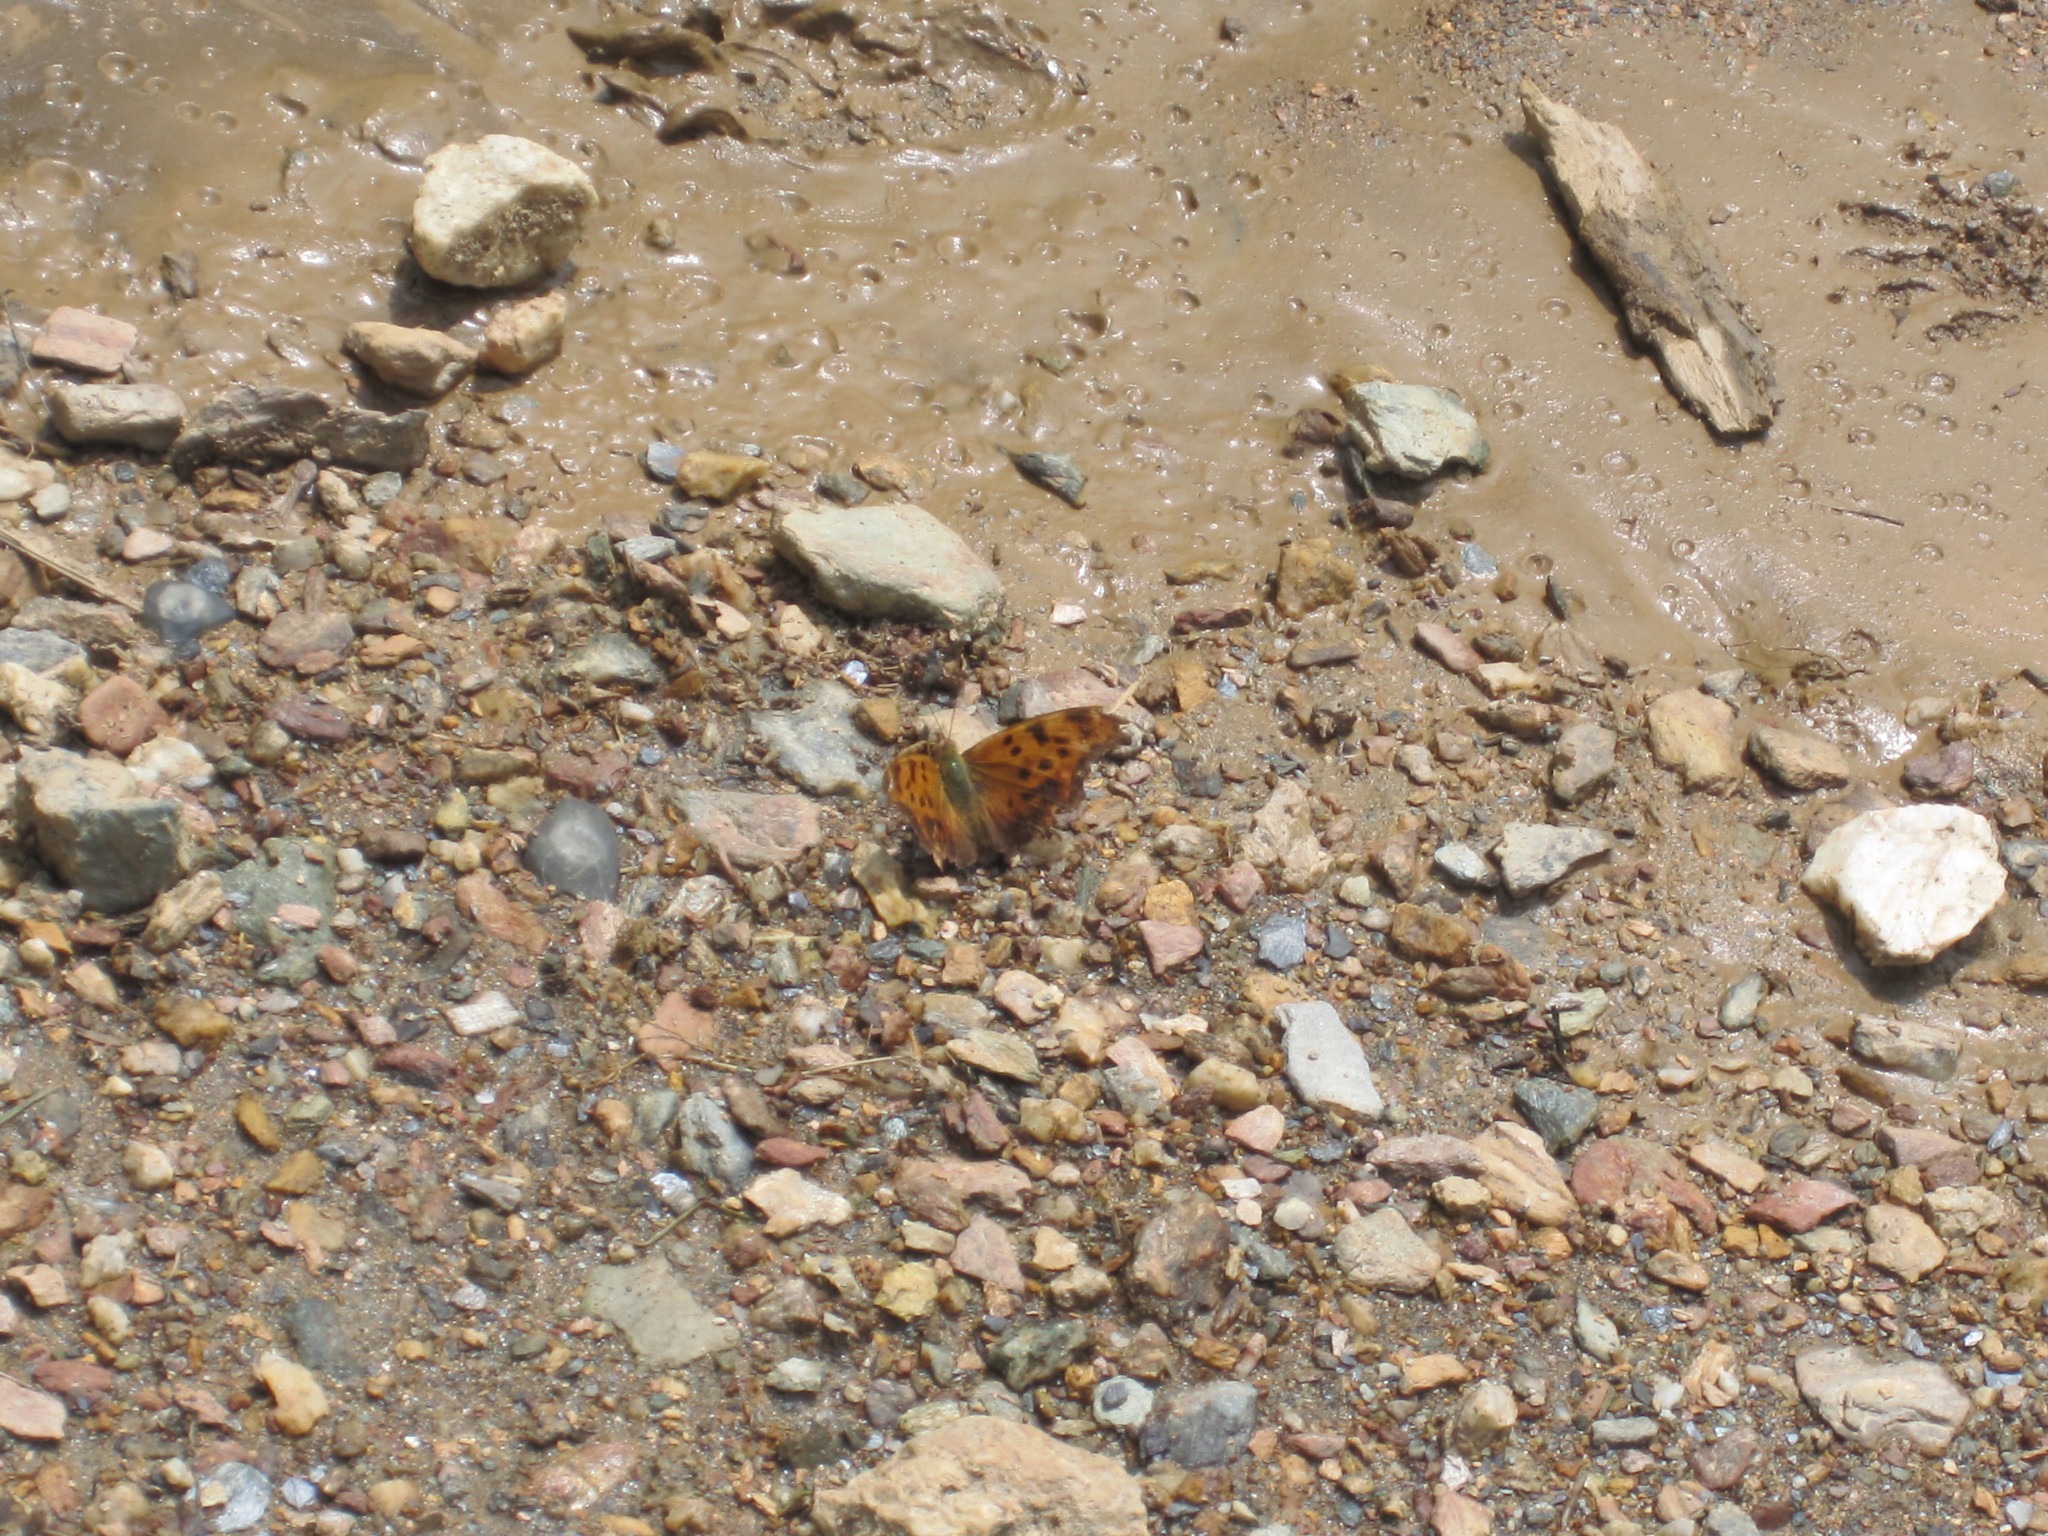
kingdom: Animalia
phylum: Arthropoda
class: Insecta
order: Lepidoptera
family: Nymphalidae
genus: Polygonia
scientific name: Polygonia interrogationis
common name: Question mark
